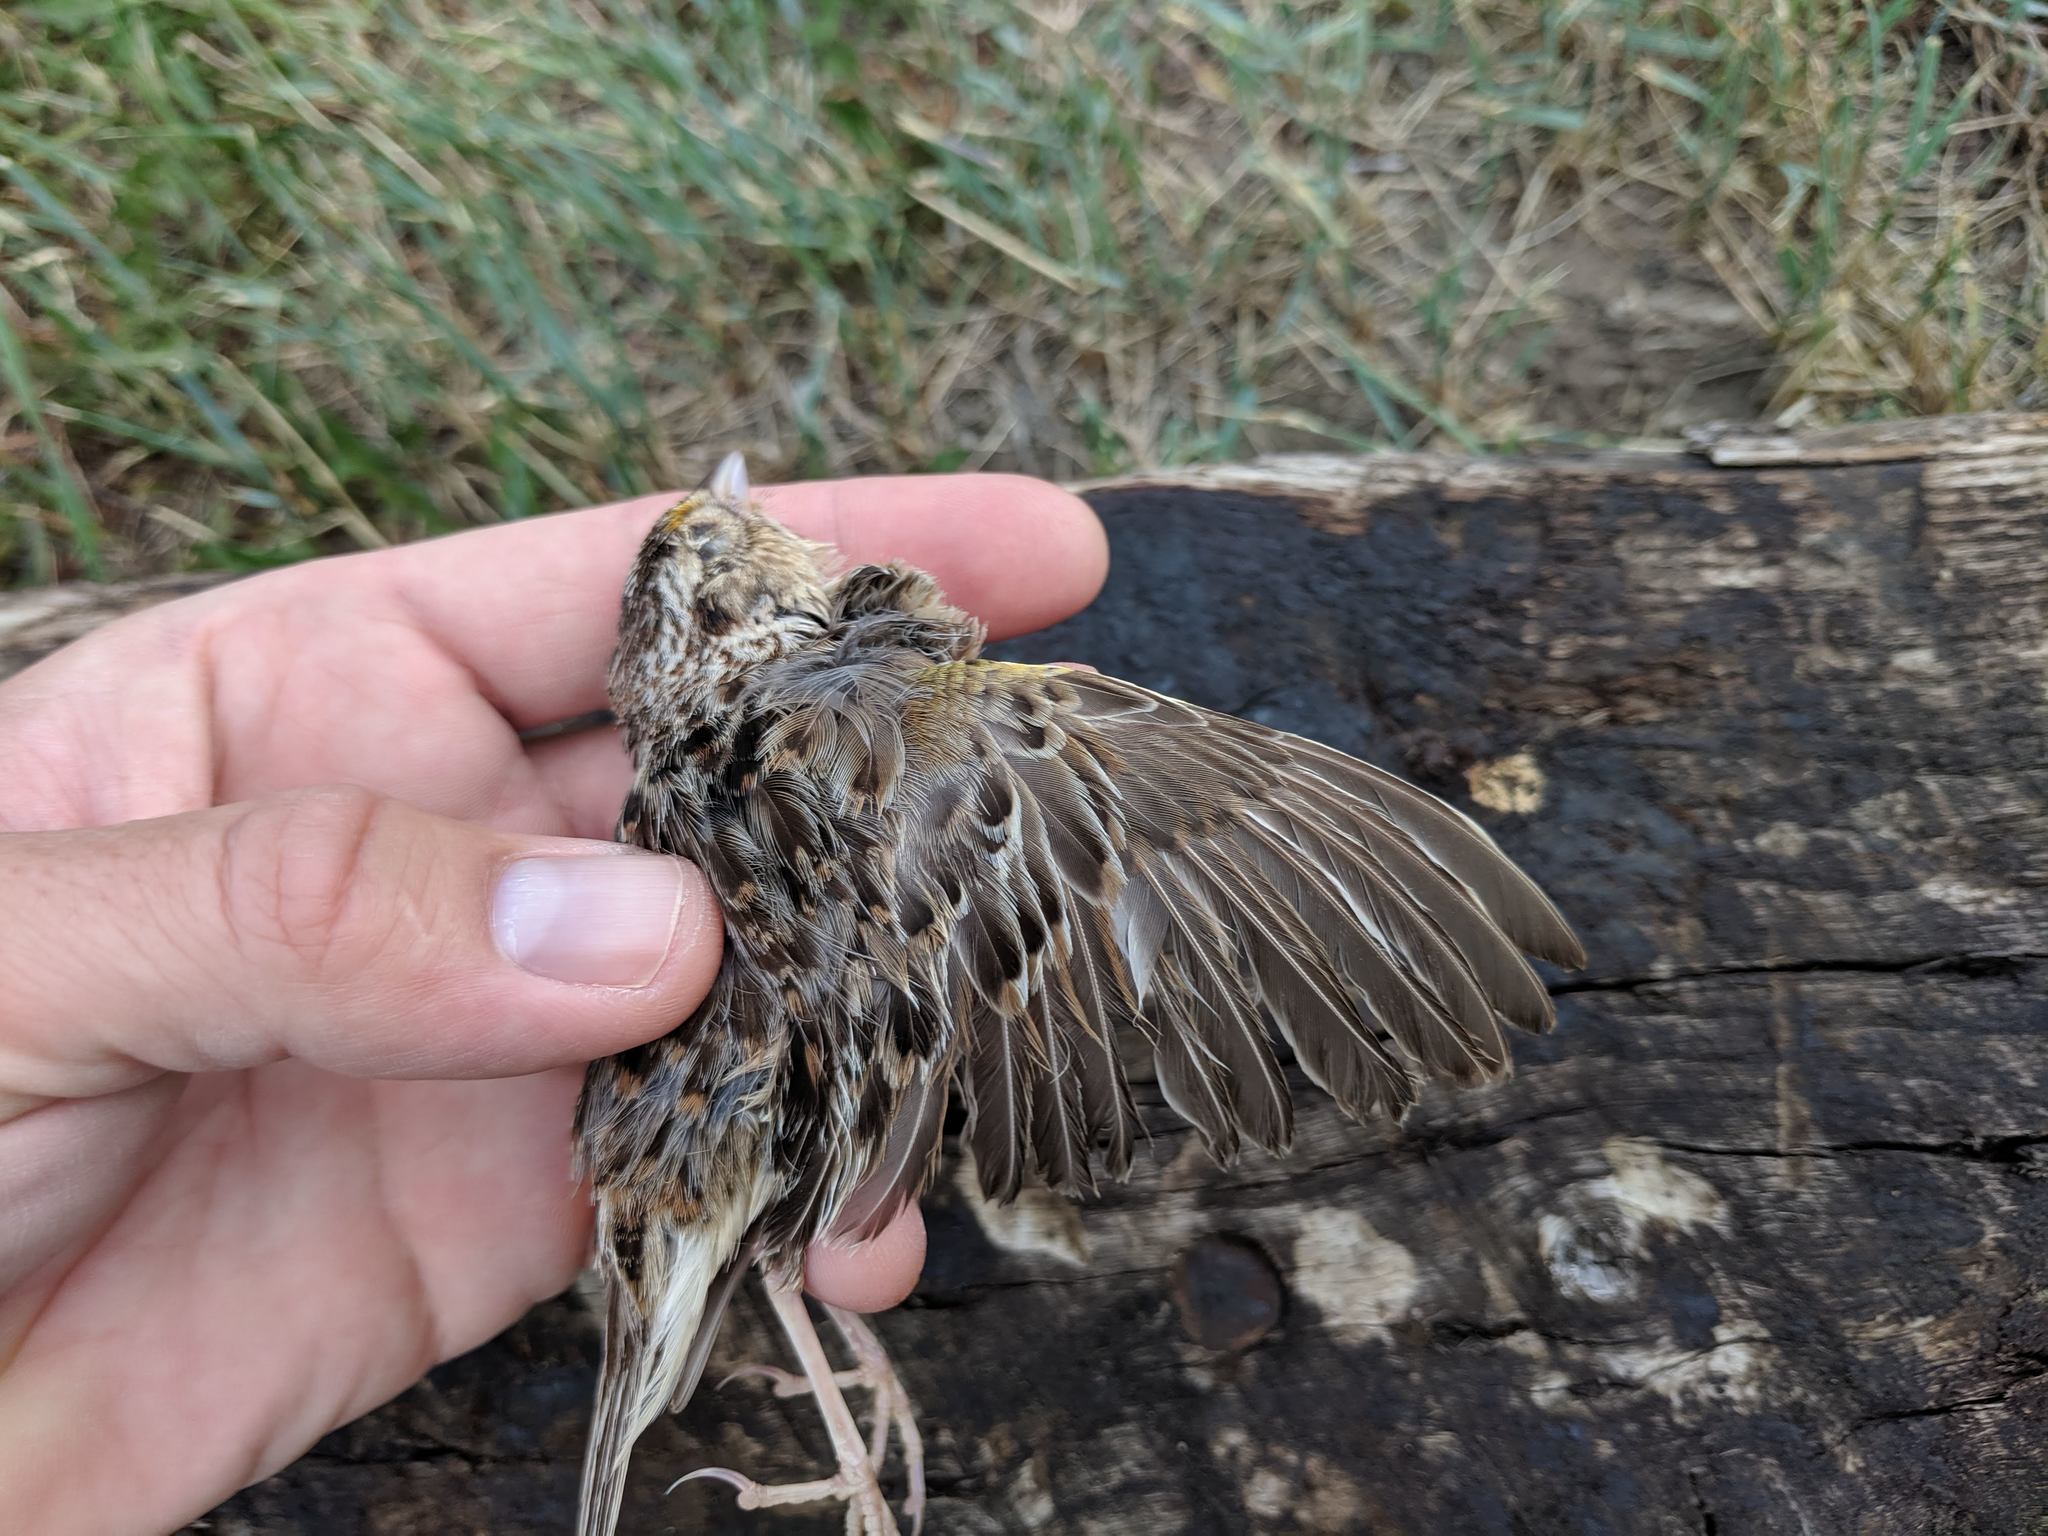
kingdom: Animalia
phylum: Chordata
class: Aves
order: Passeriformes
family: Passerellidae
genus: Ammodramus
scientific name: Ammodramus savannarum
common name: Grasshopper sparrow
